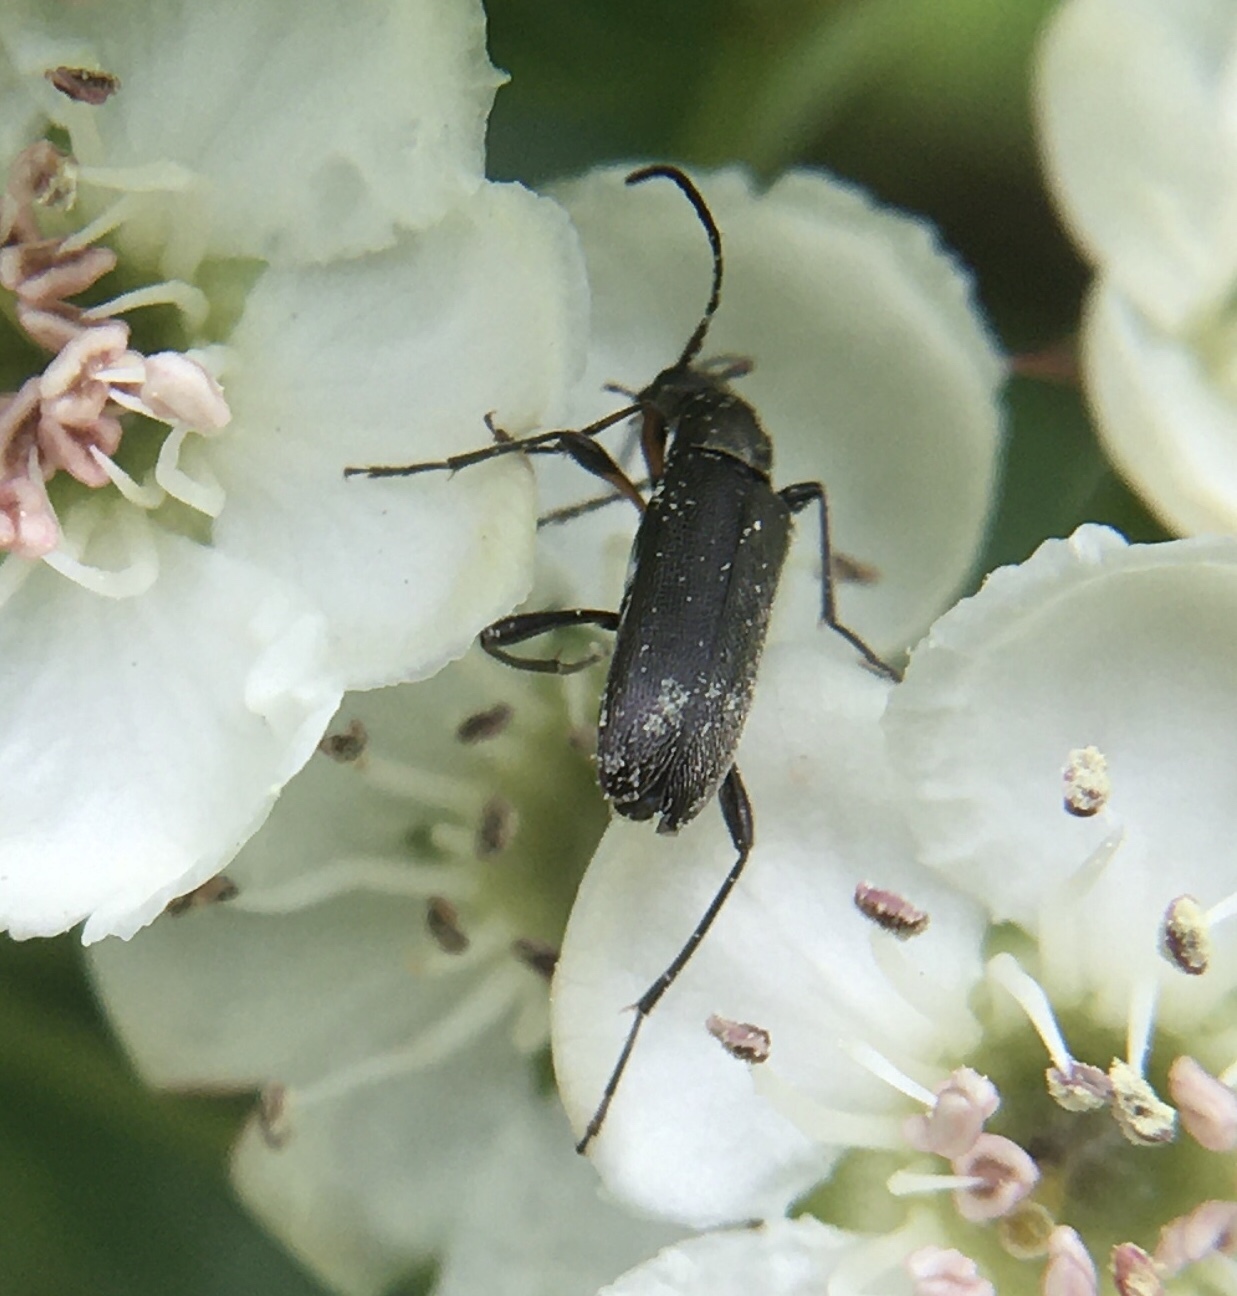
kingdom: Animalia
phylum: Arthropoda
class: Insecta
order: Coleoptera
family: Cerambycidae
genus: Grammoptera
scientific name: Grammoptera ruficornis
